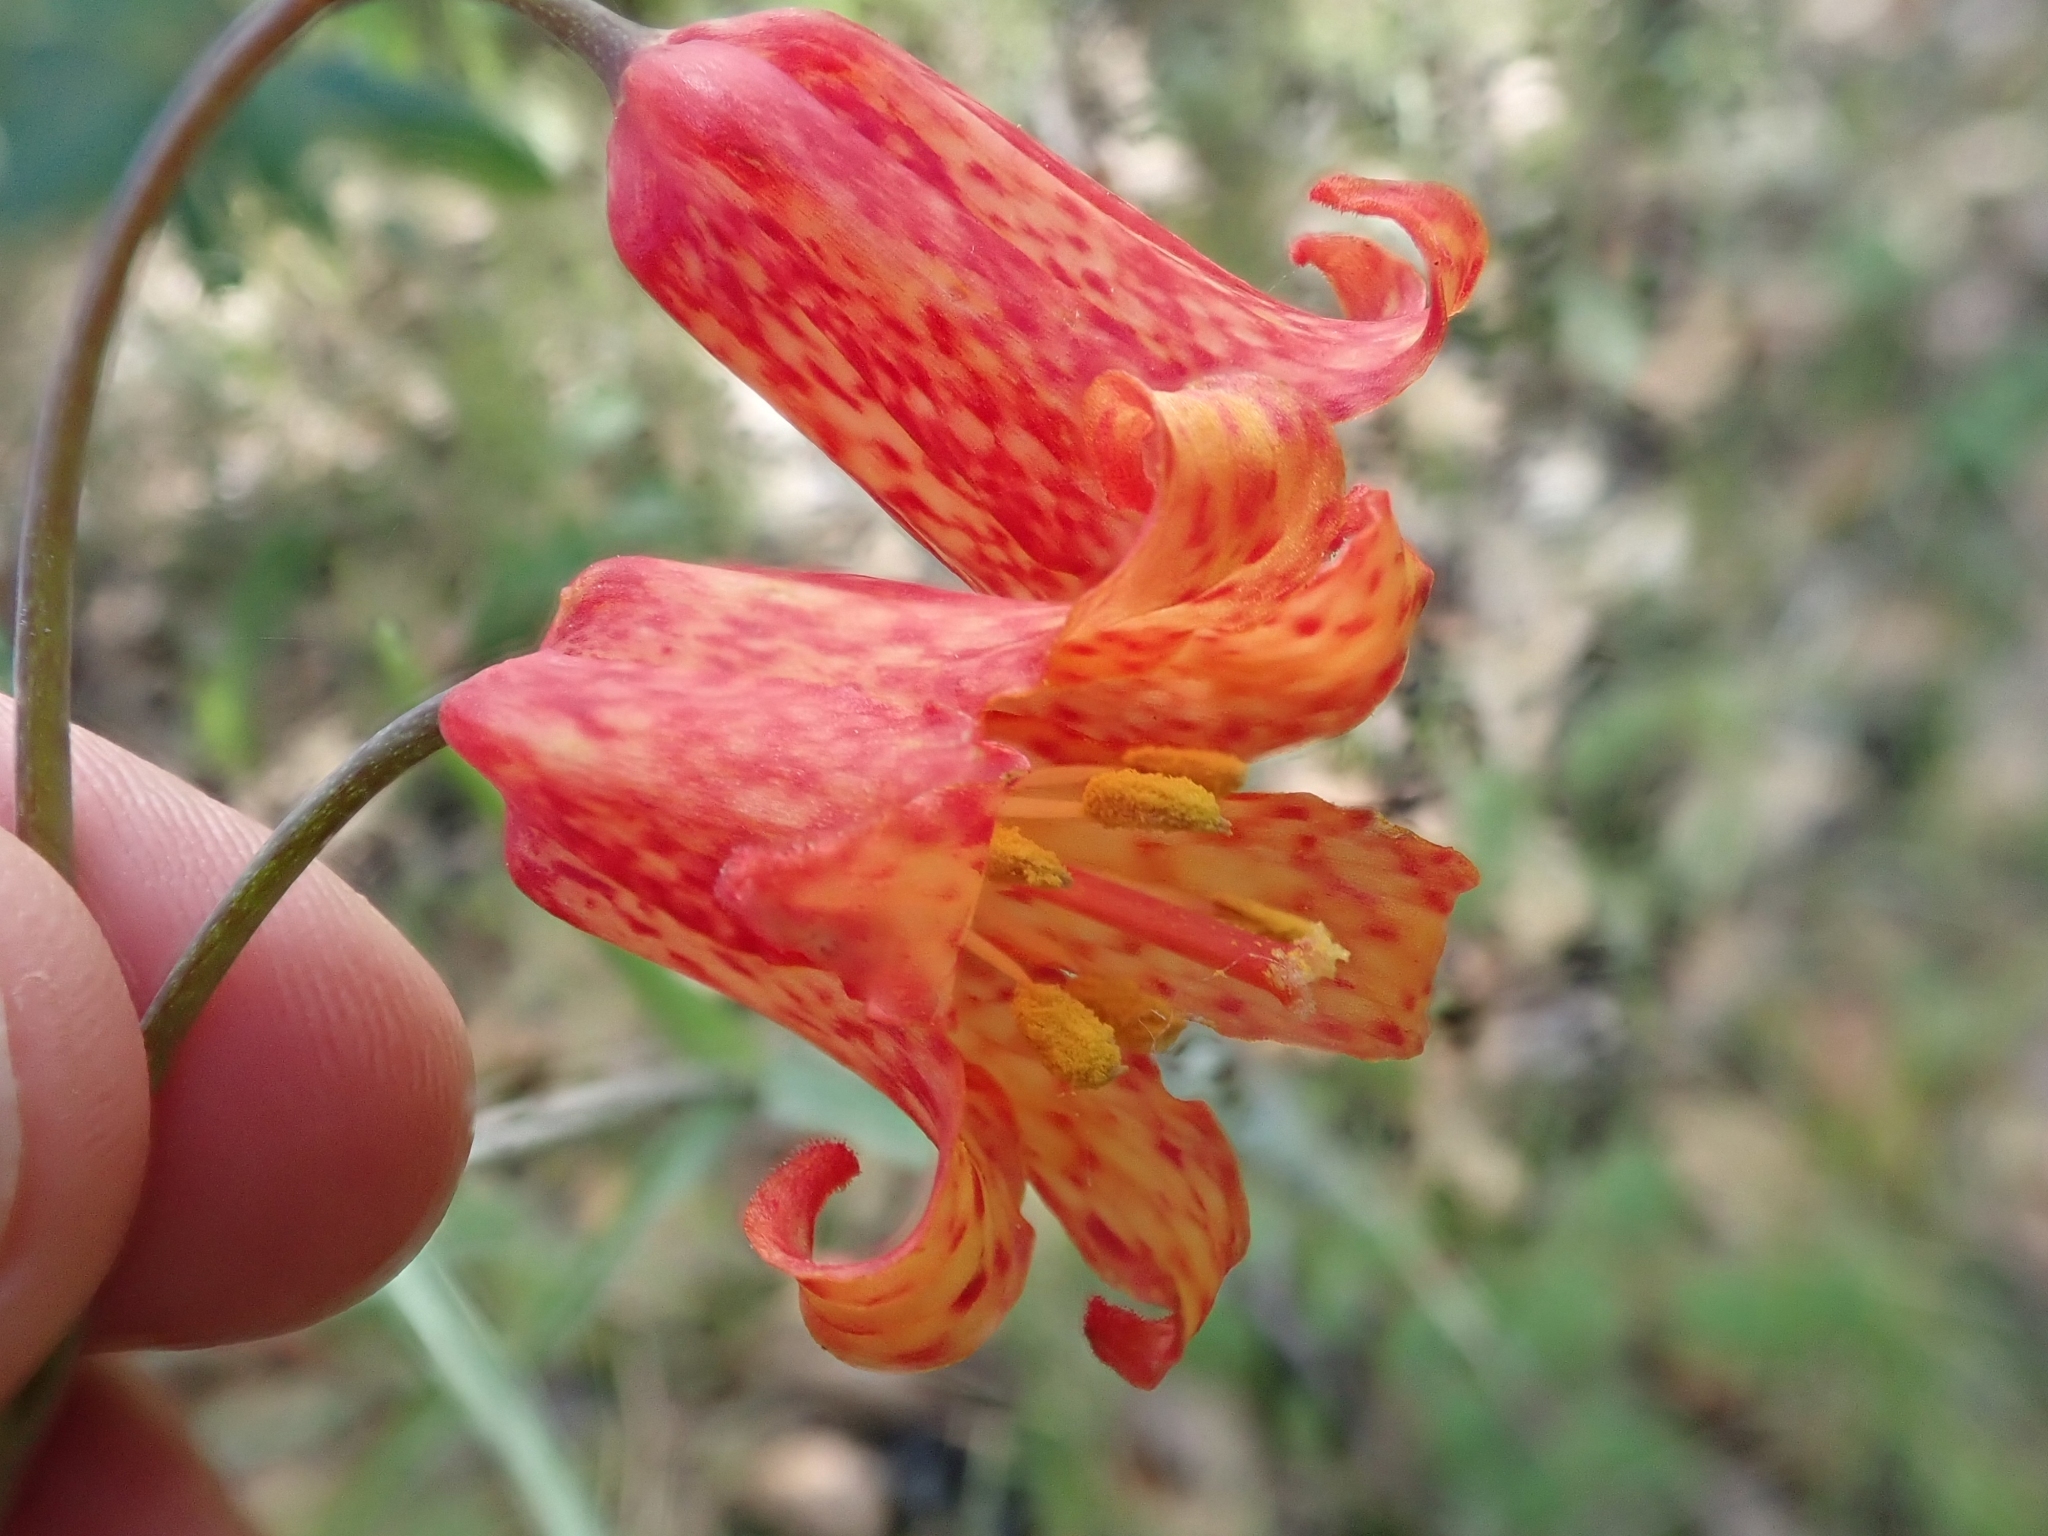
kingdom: Plantae
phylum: Tracheophyta
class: Liliopsida
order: Liliales
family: Liliaceae
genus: Fritillaria
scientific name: Fritillaria recurva
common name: Scarlet fritillary
